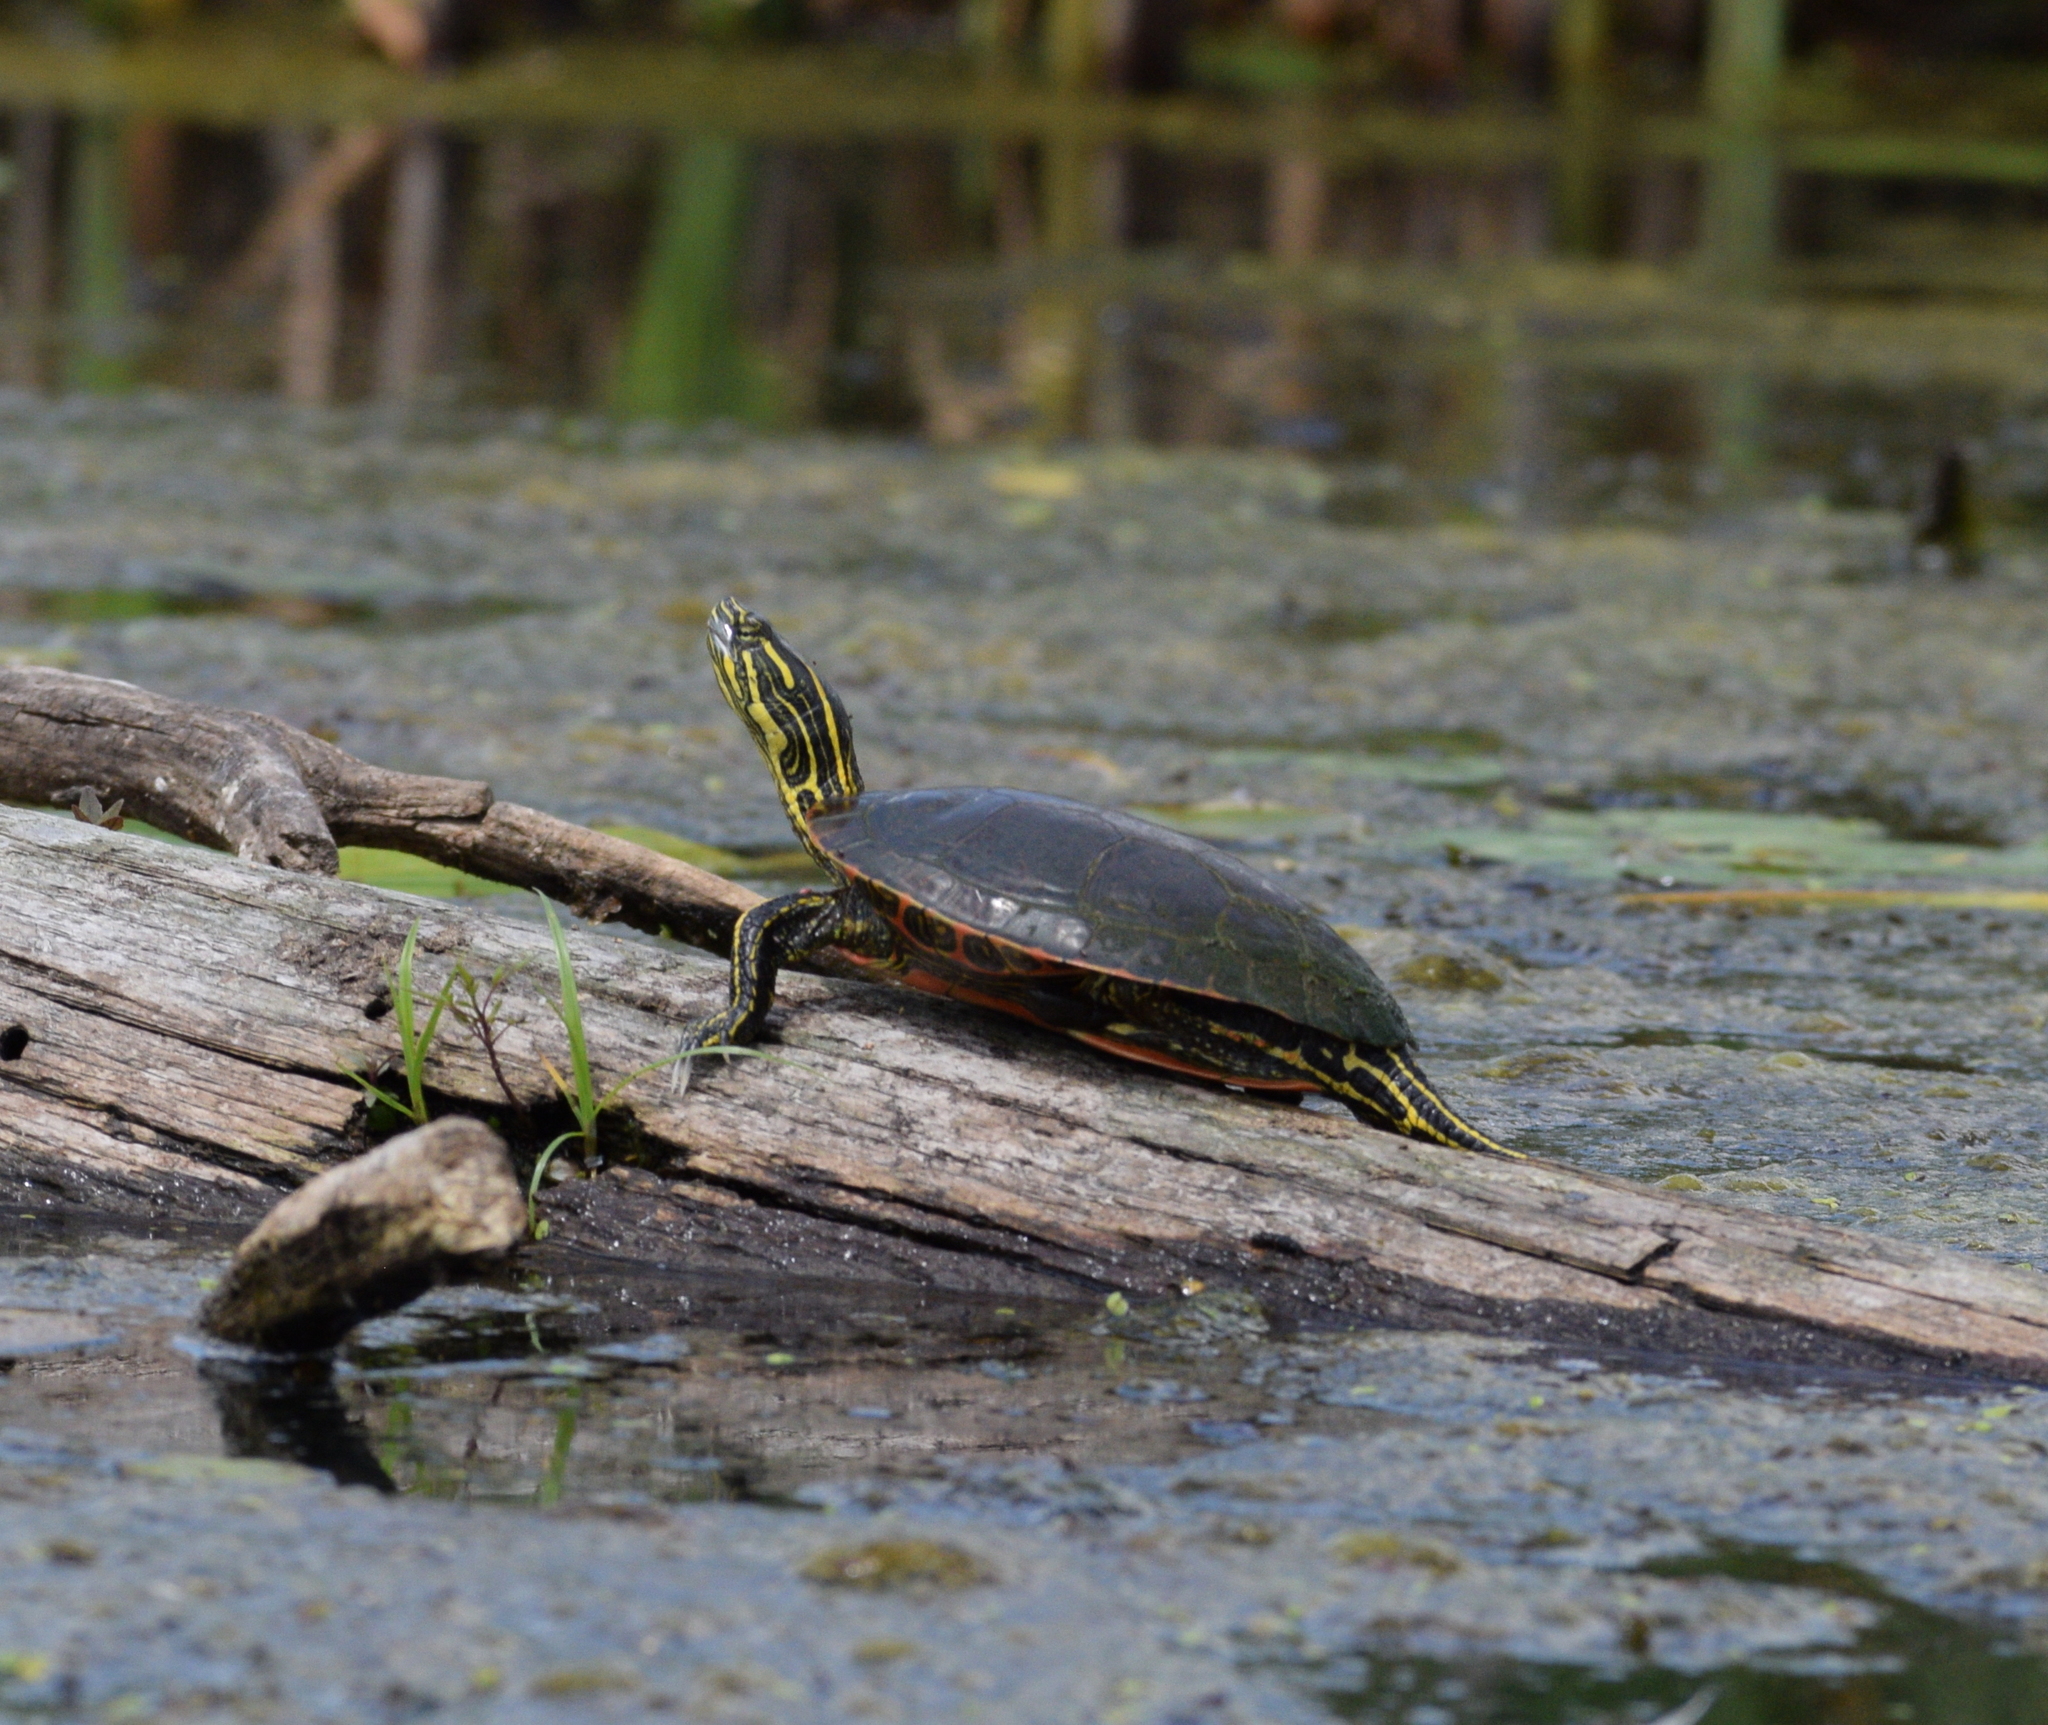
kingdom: Animalia
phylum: Chordata
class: Testudines
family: Emydidae
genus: Chrysemys
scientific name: Chrysemys picta
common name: Painted turtle
